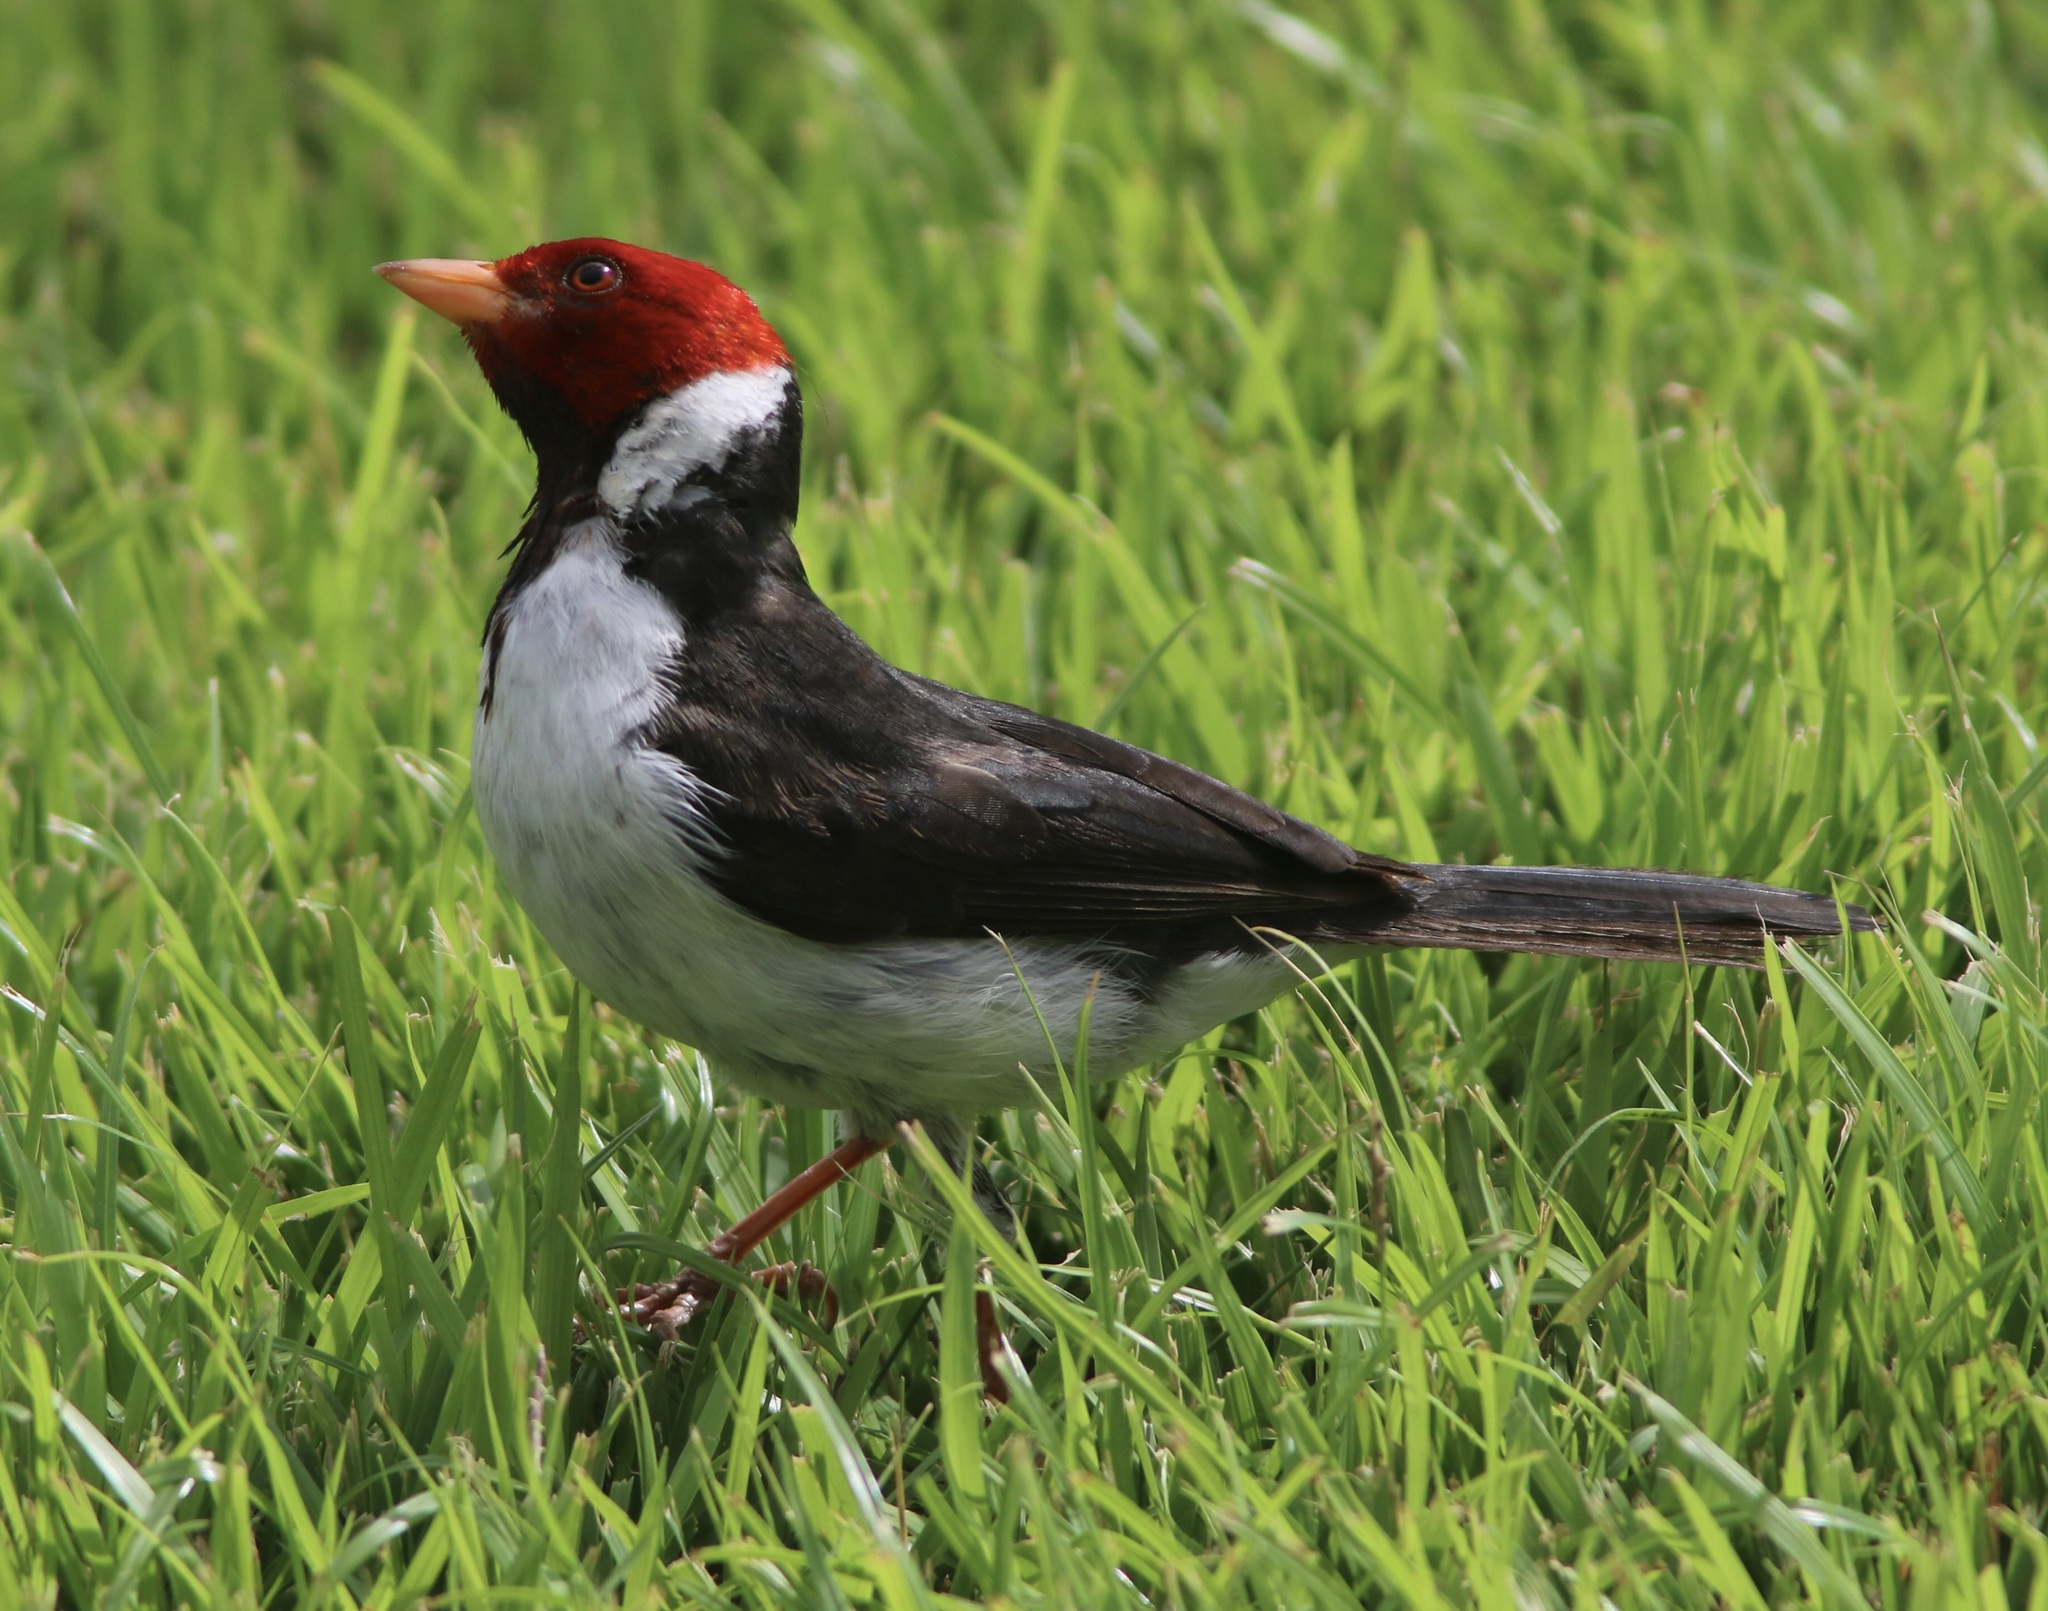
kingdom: Animalia
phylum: Chordata
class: Aves
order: Passeriformes
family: Thraupidae
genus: Paroaria
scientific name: Paroaria capitata
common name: Yellow-billed cardinal
